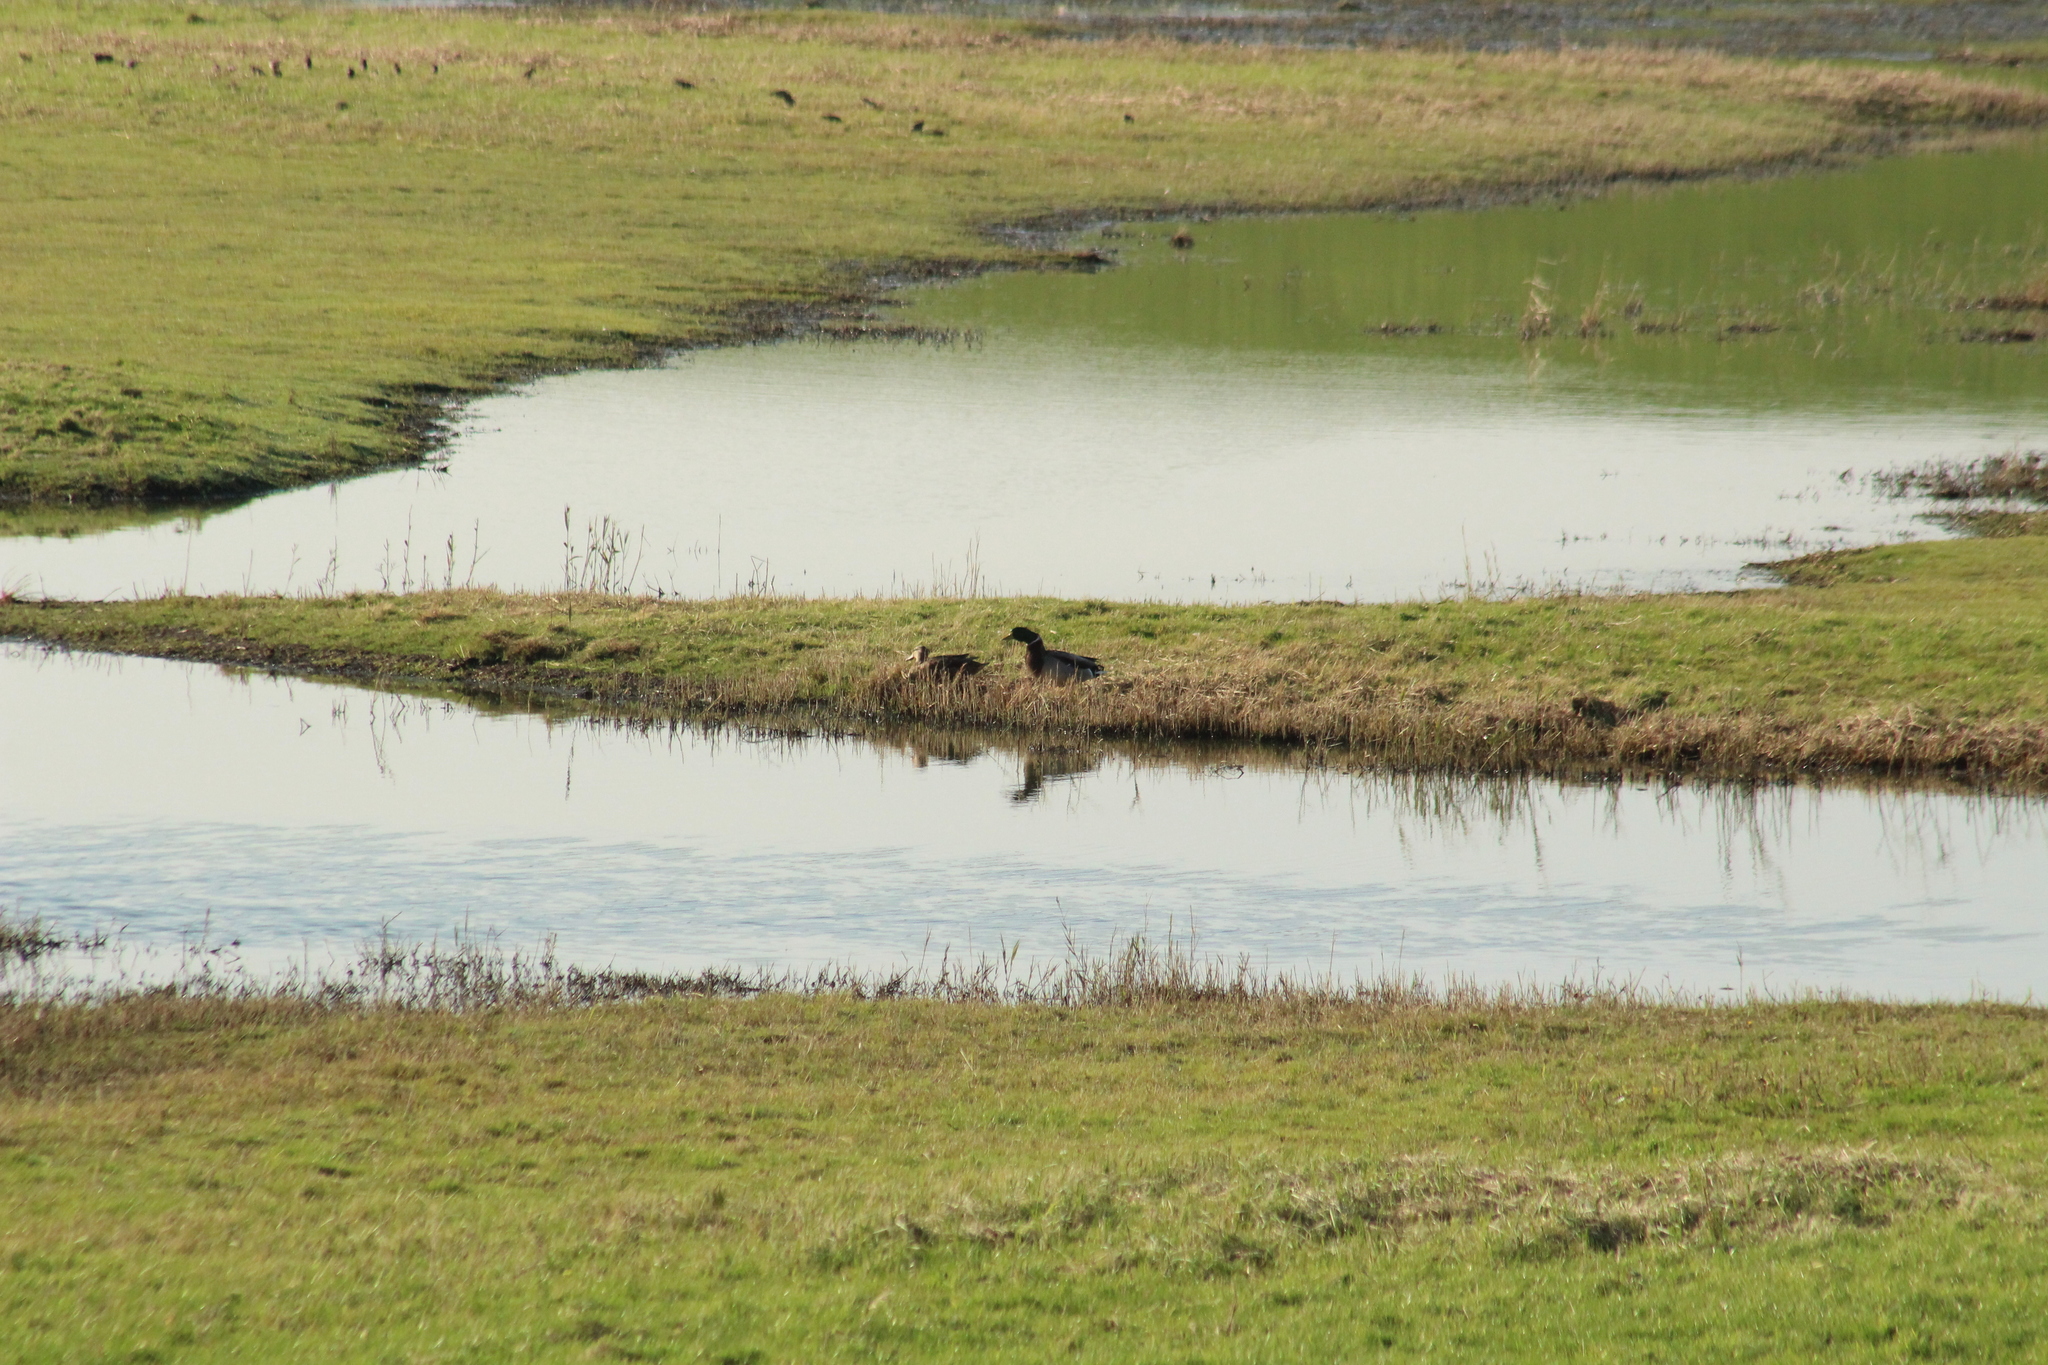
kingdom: Animalia
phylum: Chordata
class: Aves
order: Anseriformes
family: Anatidae
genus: Anas
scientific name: Anas platyrhynchos
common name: Mallard
